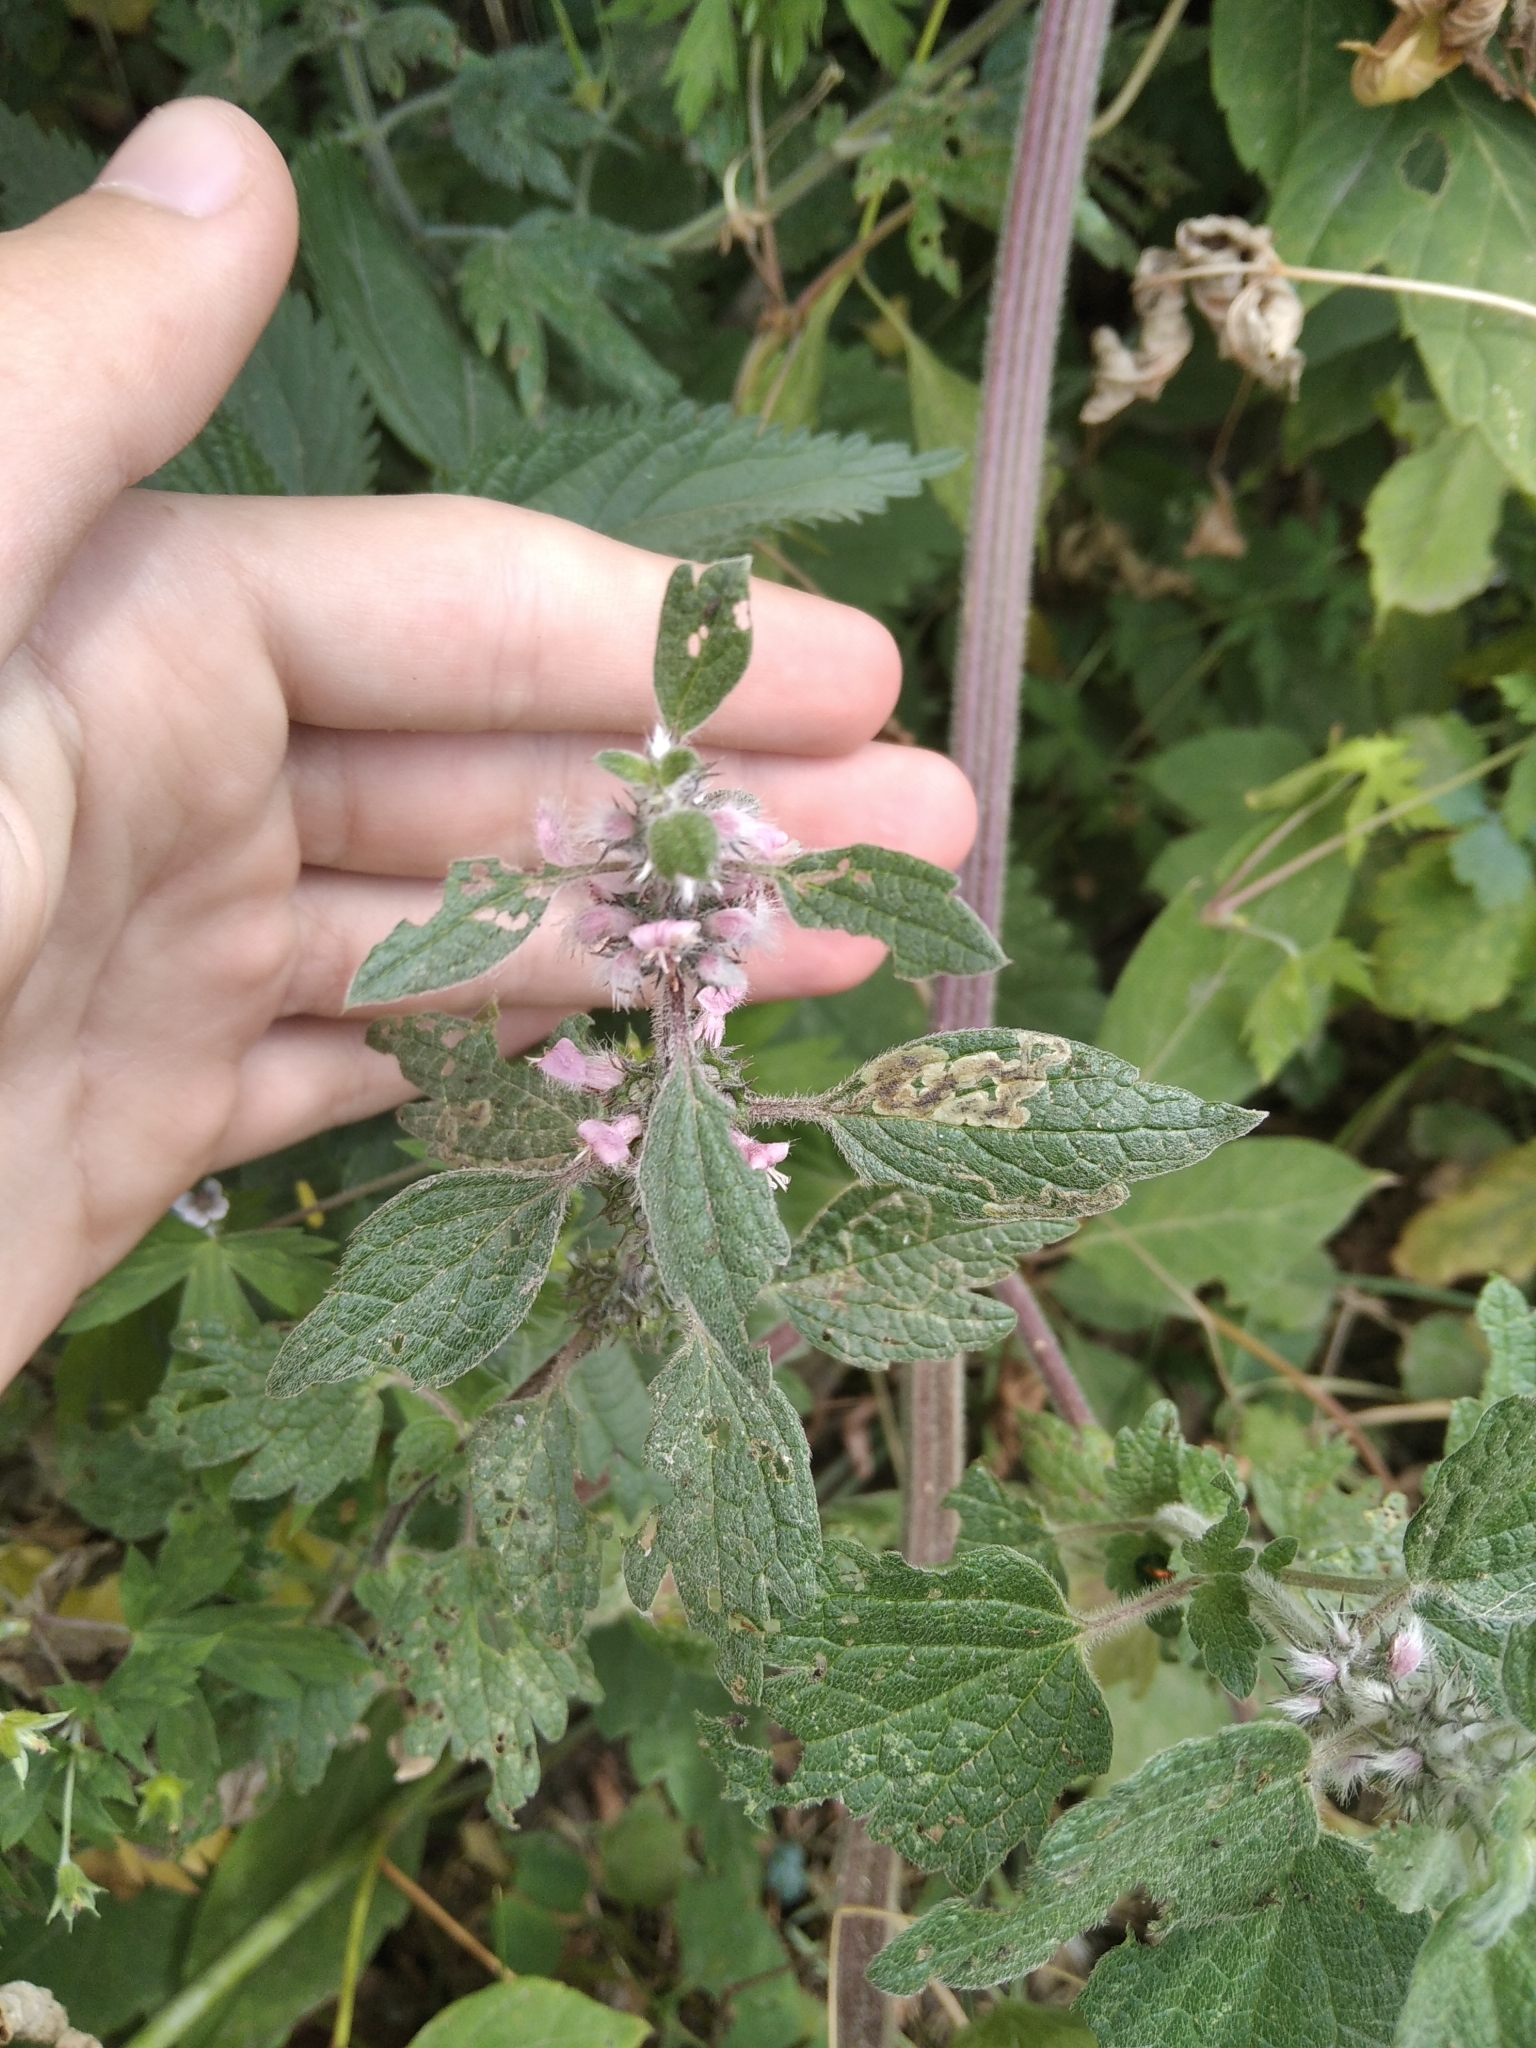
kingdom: Plantae
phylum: Tracheophyta
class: Magnoliopsida
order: Lamiales
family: Lamiaceae
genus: Leonurus
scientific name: Leonurus quinquelobatus
